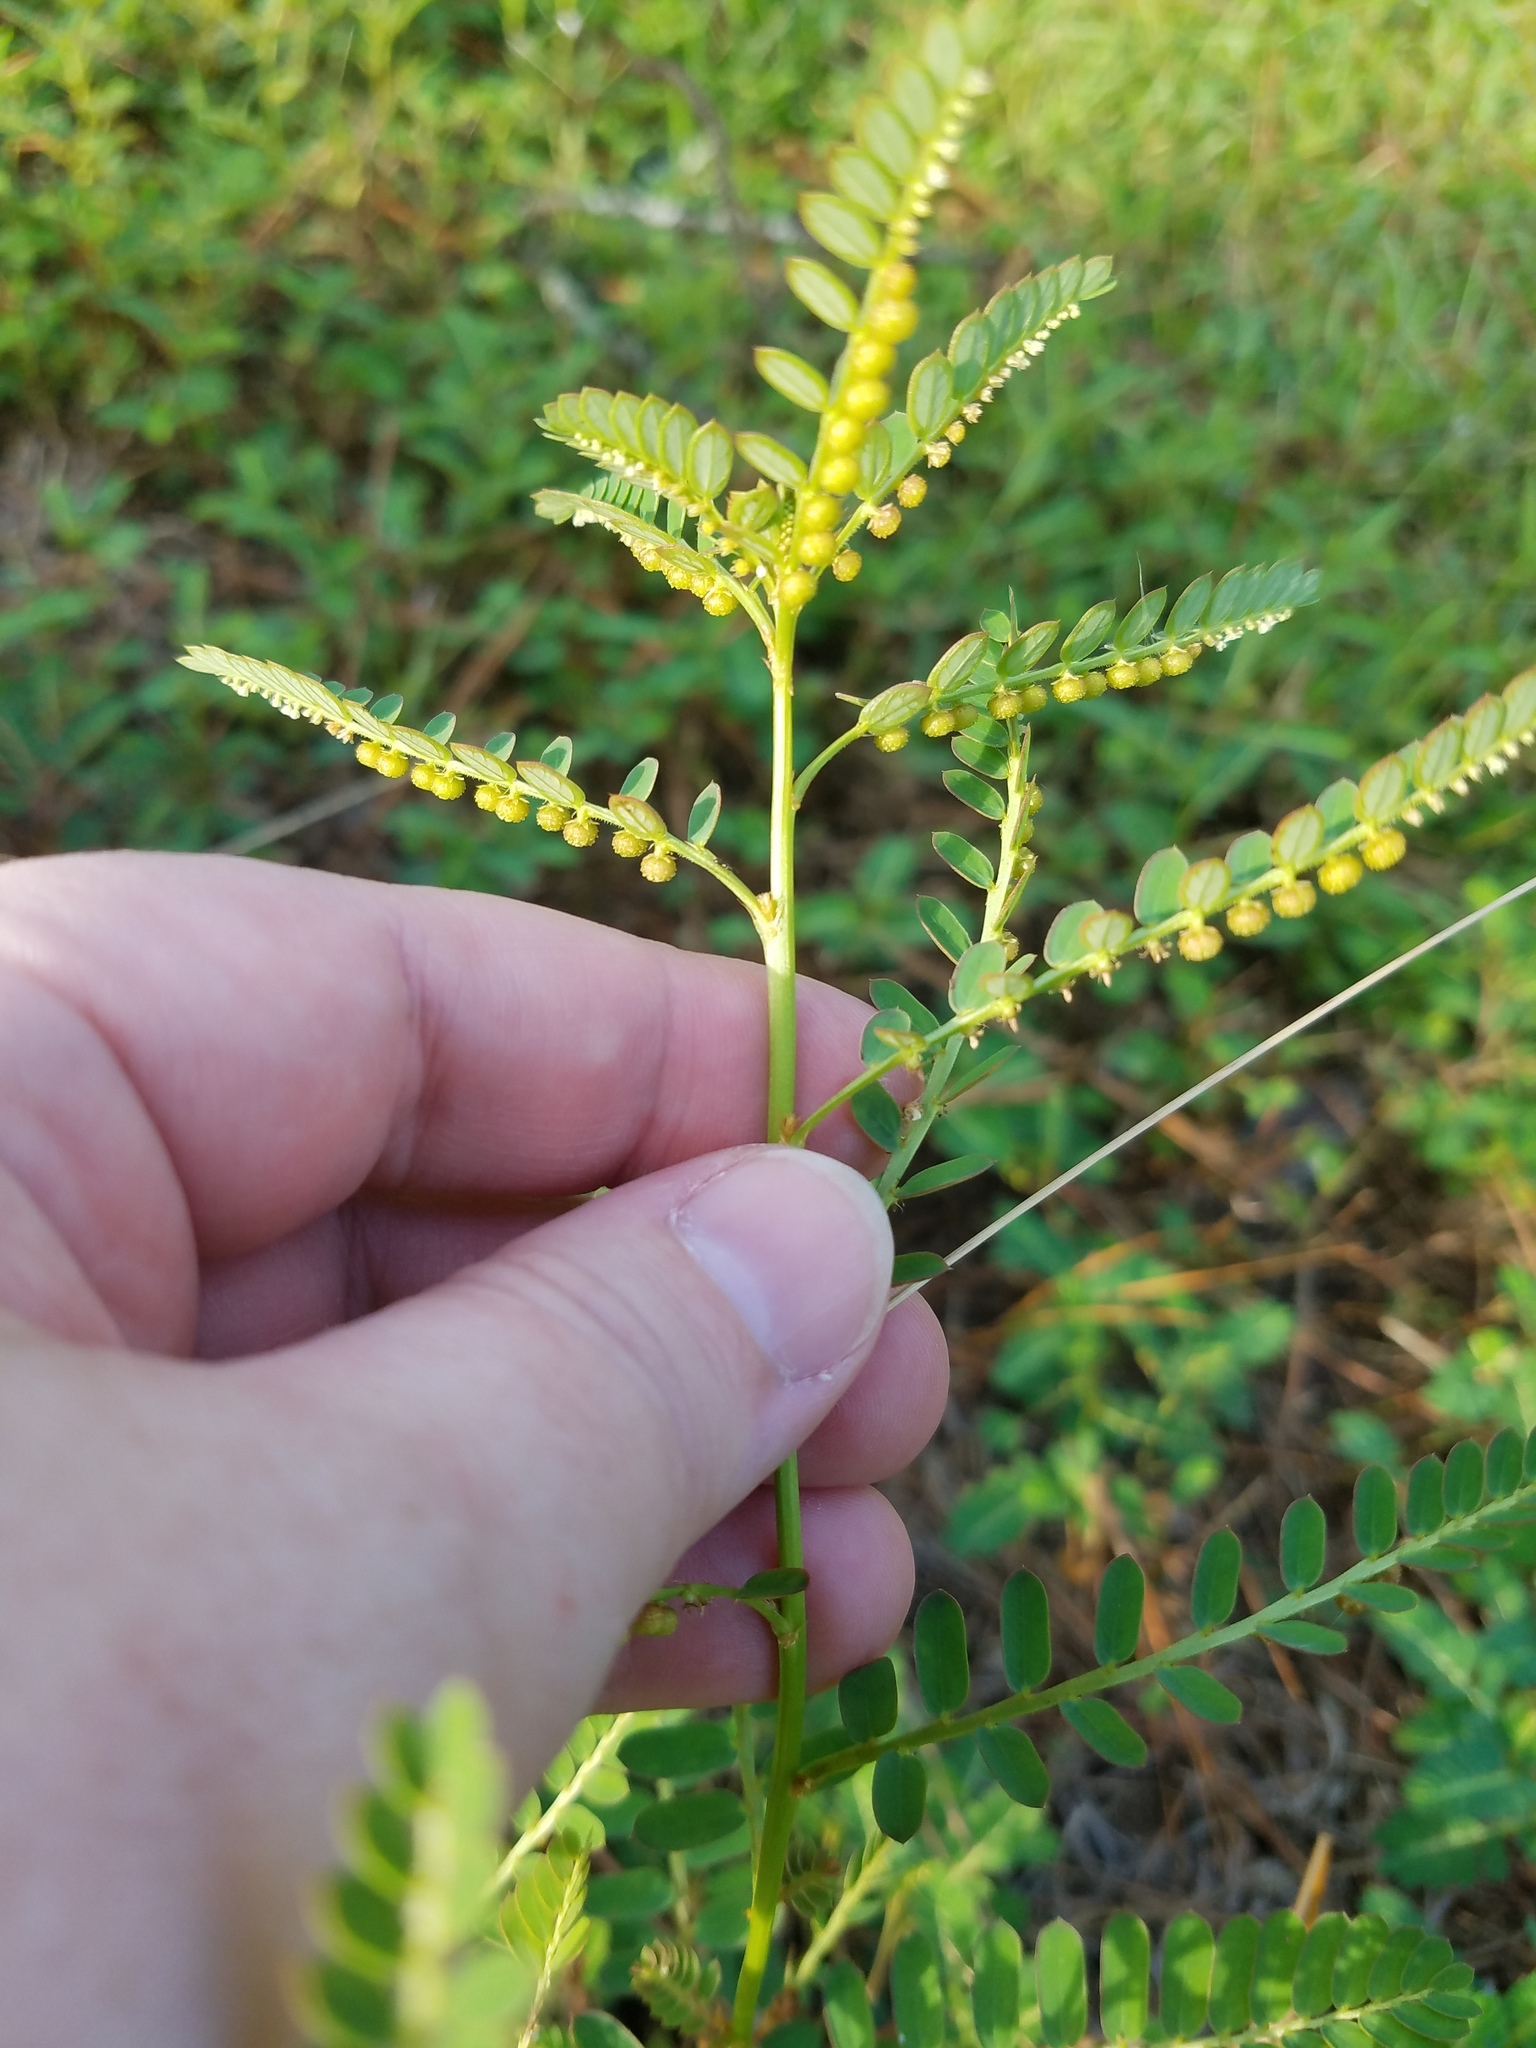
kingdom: Plantae
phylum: Tracheophyta
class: Magnoliopsida
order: Malpighiales
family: Phyllanthaceae
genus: Phyllanthus
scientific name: Phyllanthus urinaria
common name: Chamber bitter
